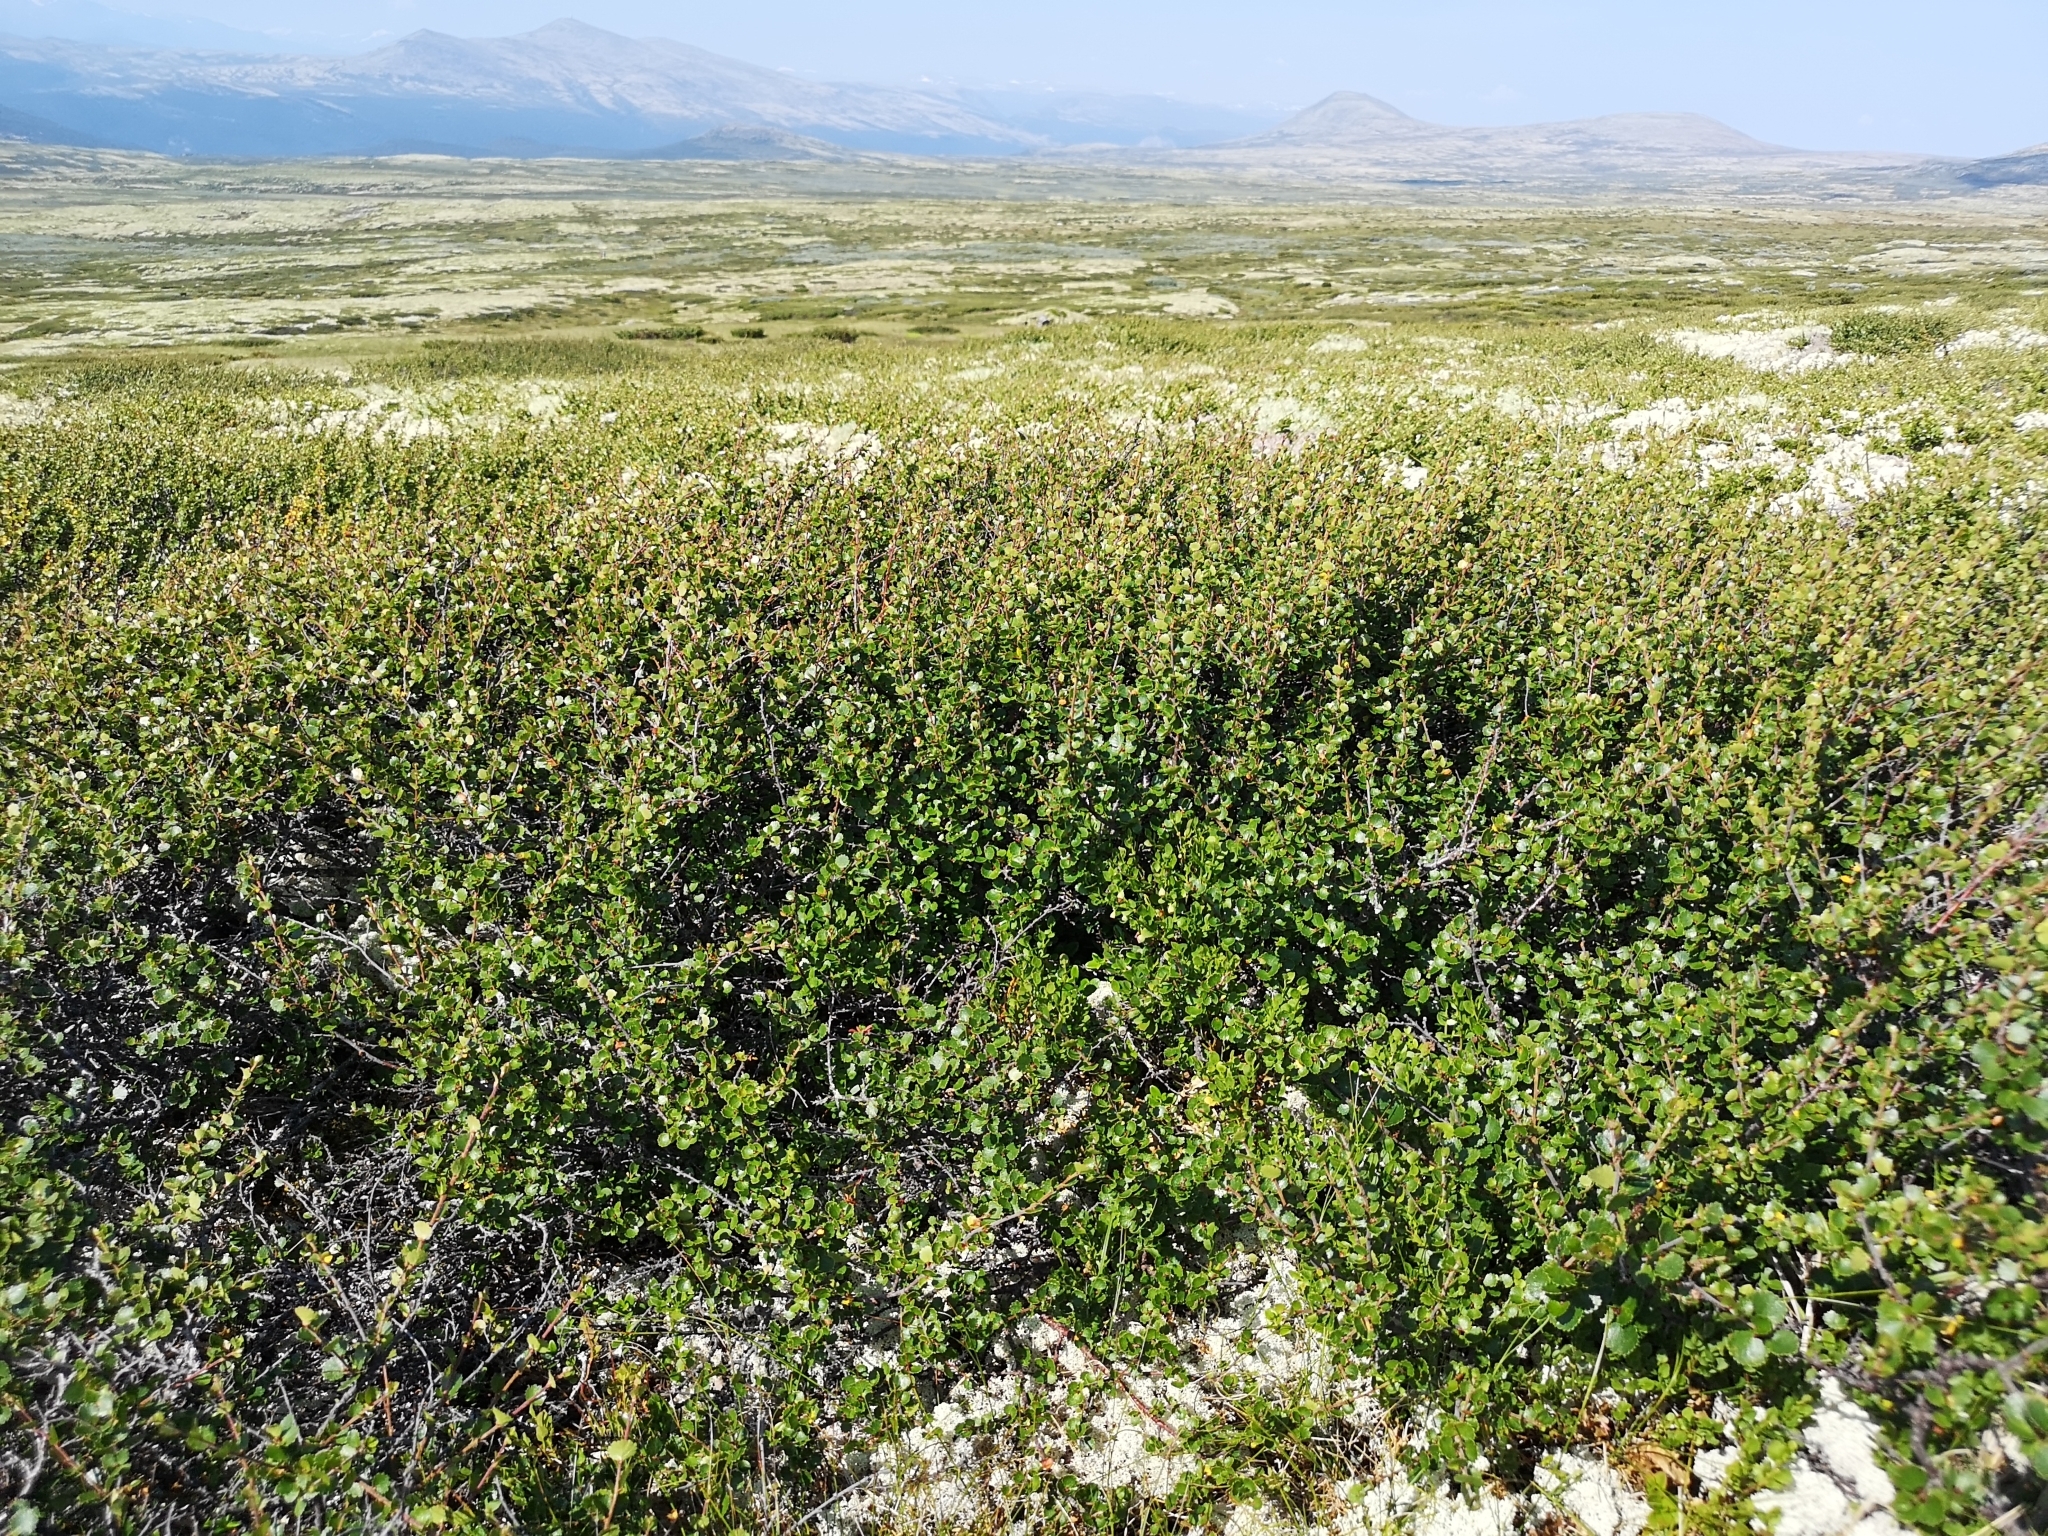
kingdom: Plantae
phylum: Tracheophyta
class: Magnoliopsida
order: Fagales
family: Betulaceae
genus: Betula
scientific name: Betula nana
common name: Arctic dwarf birch
